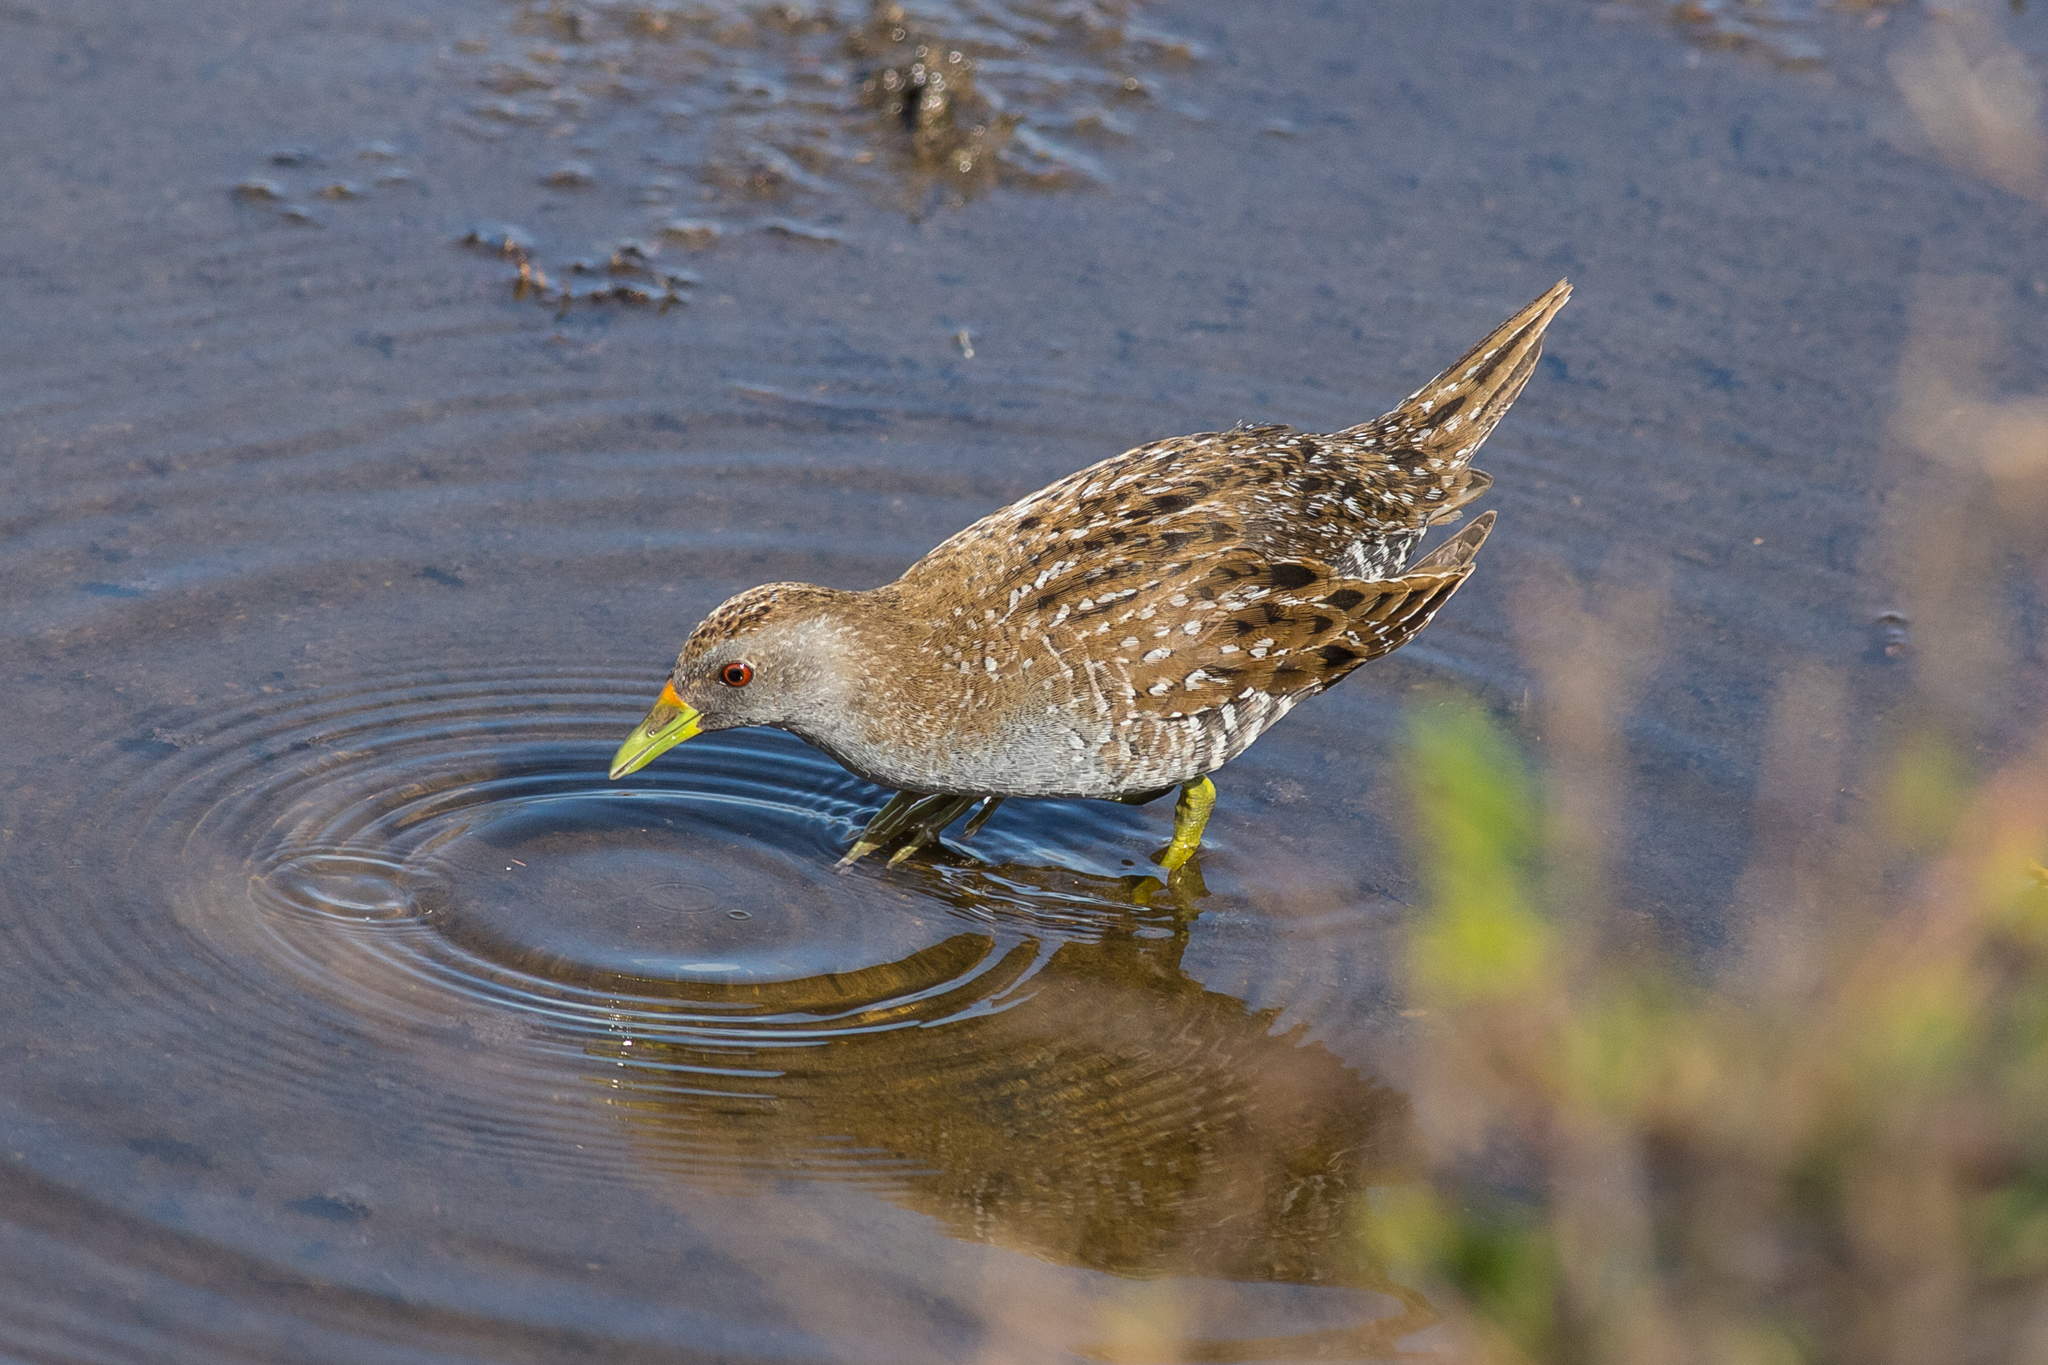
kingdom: Animalia
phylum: Chordata
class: Aves
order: Gruiformes
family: Rallidae
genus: Porzana
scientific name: Porzana fluminea
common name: Australian crake
